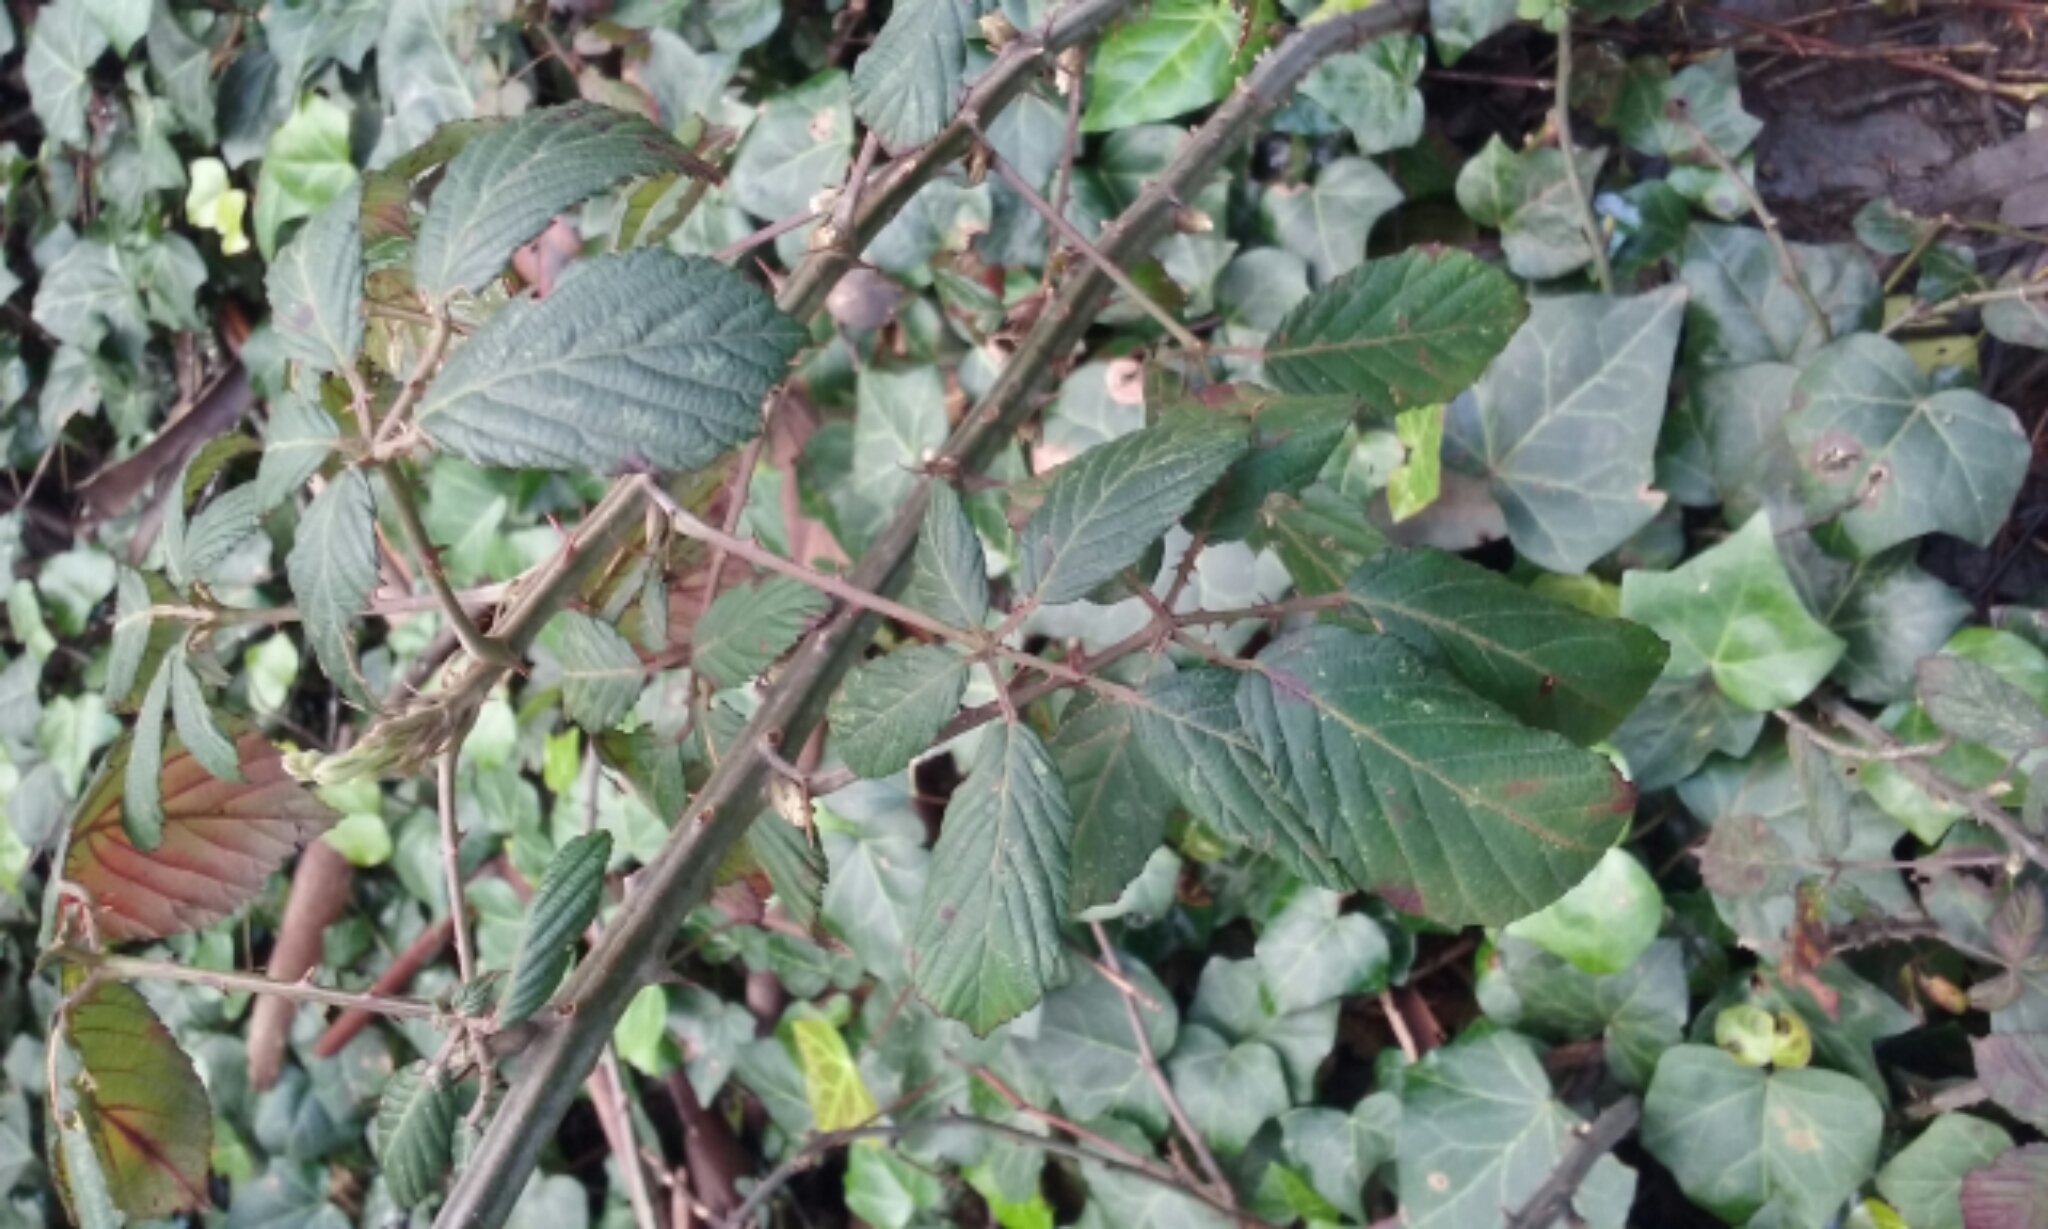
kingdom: Plantae
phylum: Tracheophyta
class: Magnoliopsida
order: Rosales
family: Rosaceae
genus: Rubus
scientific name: Rubus armeniacus
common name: Himalayan blackberry
